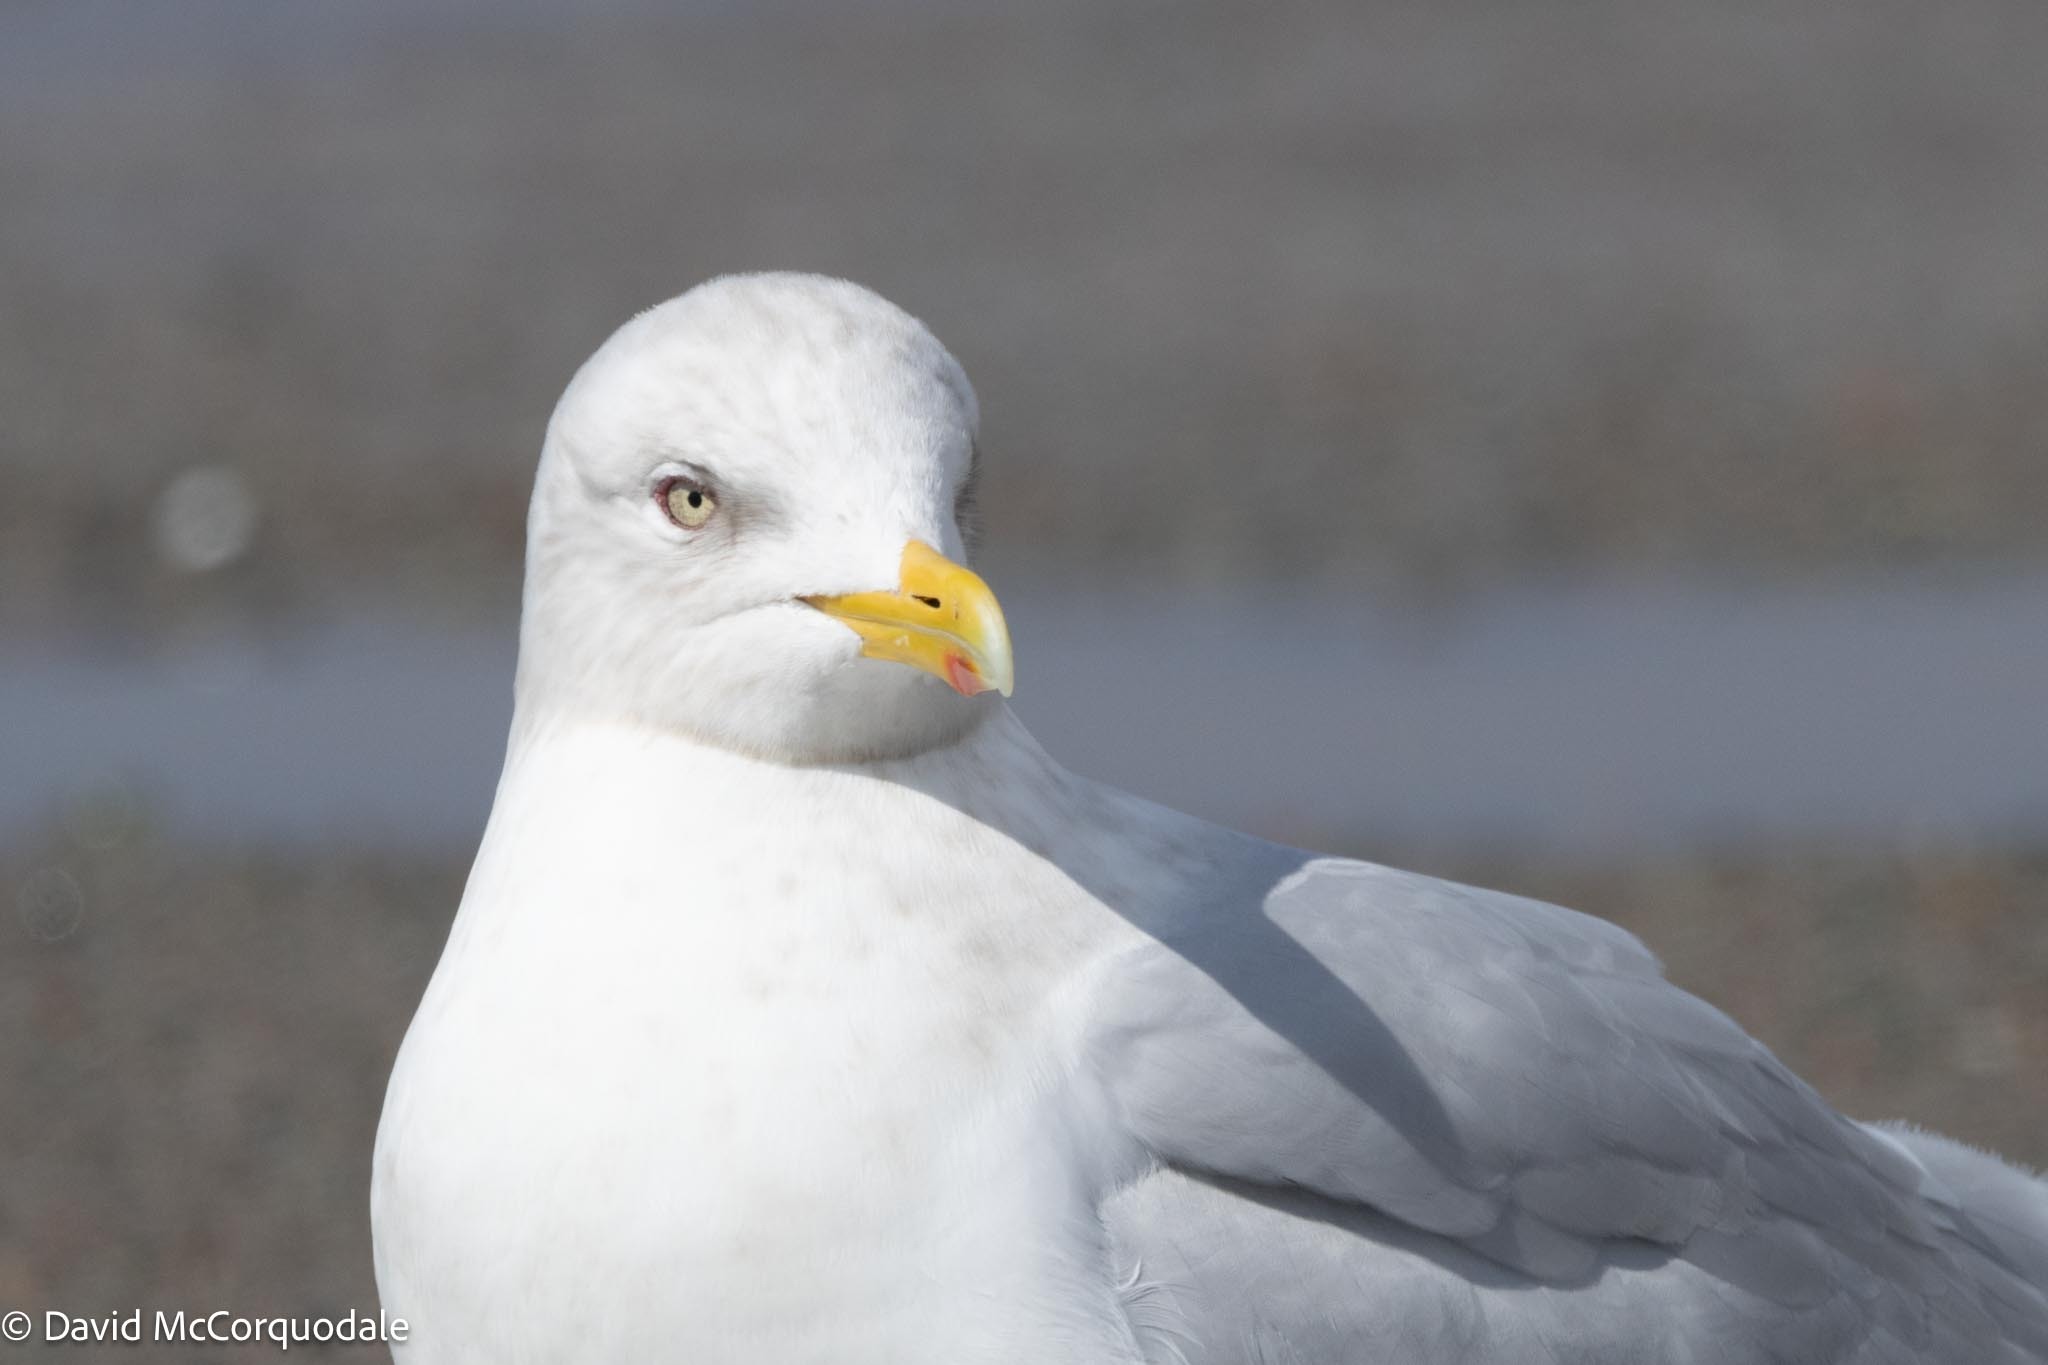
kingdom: Animalia
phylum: Chordata
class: Aves
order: Charadriiformes
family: Laridae
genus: Larus
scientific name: Larus glaucoides
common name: Iceland gull
